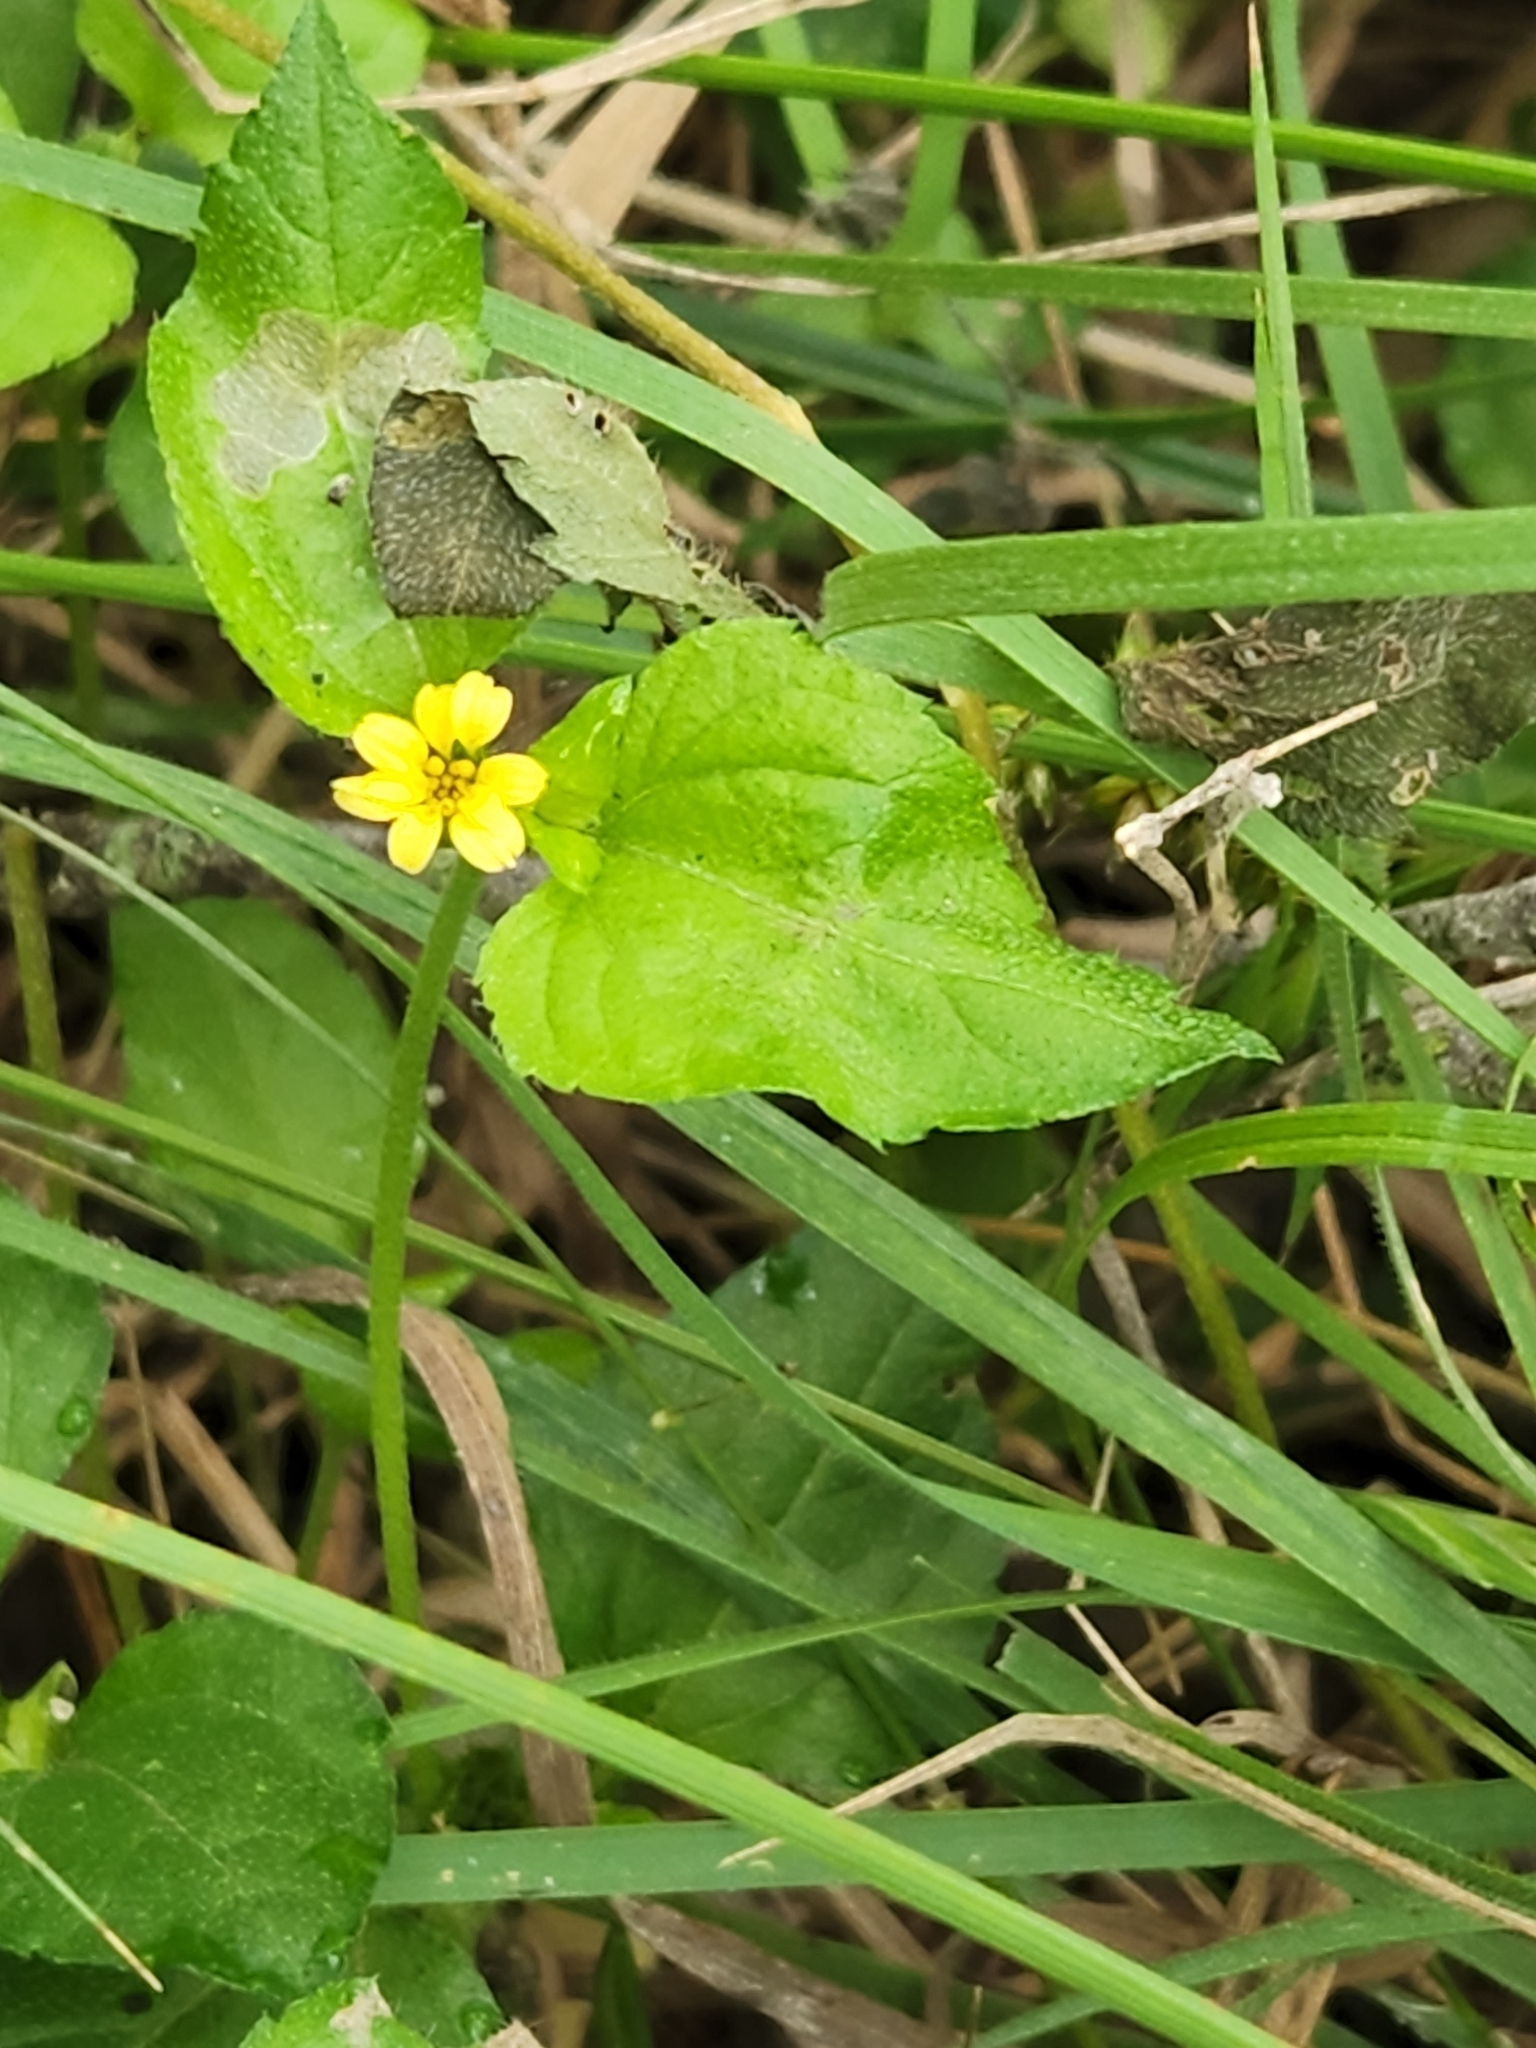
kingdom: Plantae
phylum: Tracheophyta
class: Magnoliopsida
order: Asterales
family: Asteraceae
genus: Calyptocarpus
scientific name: Calyptocarpus vialis
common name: Straggler daisy
